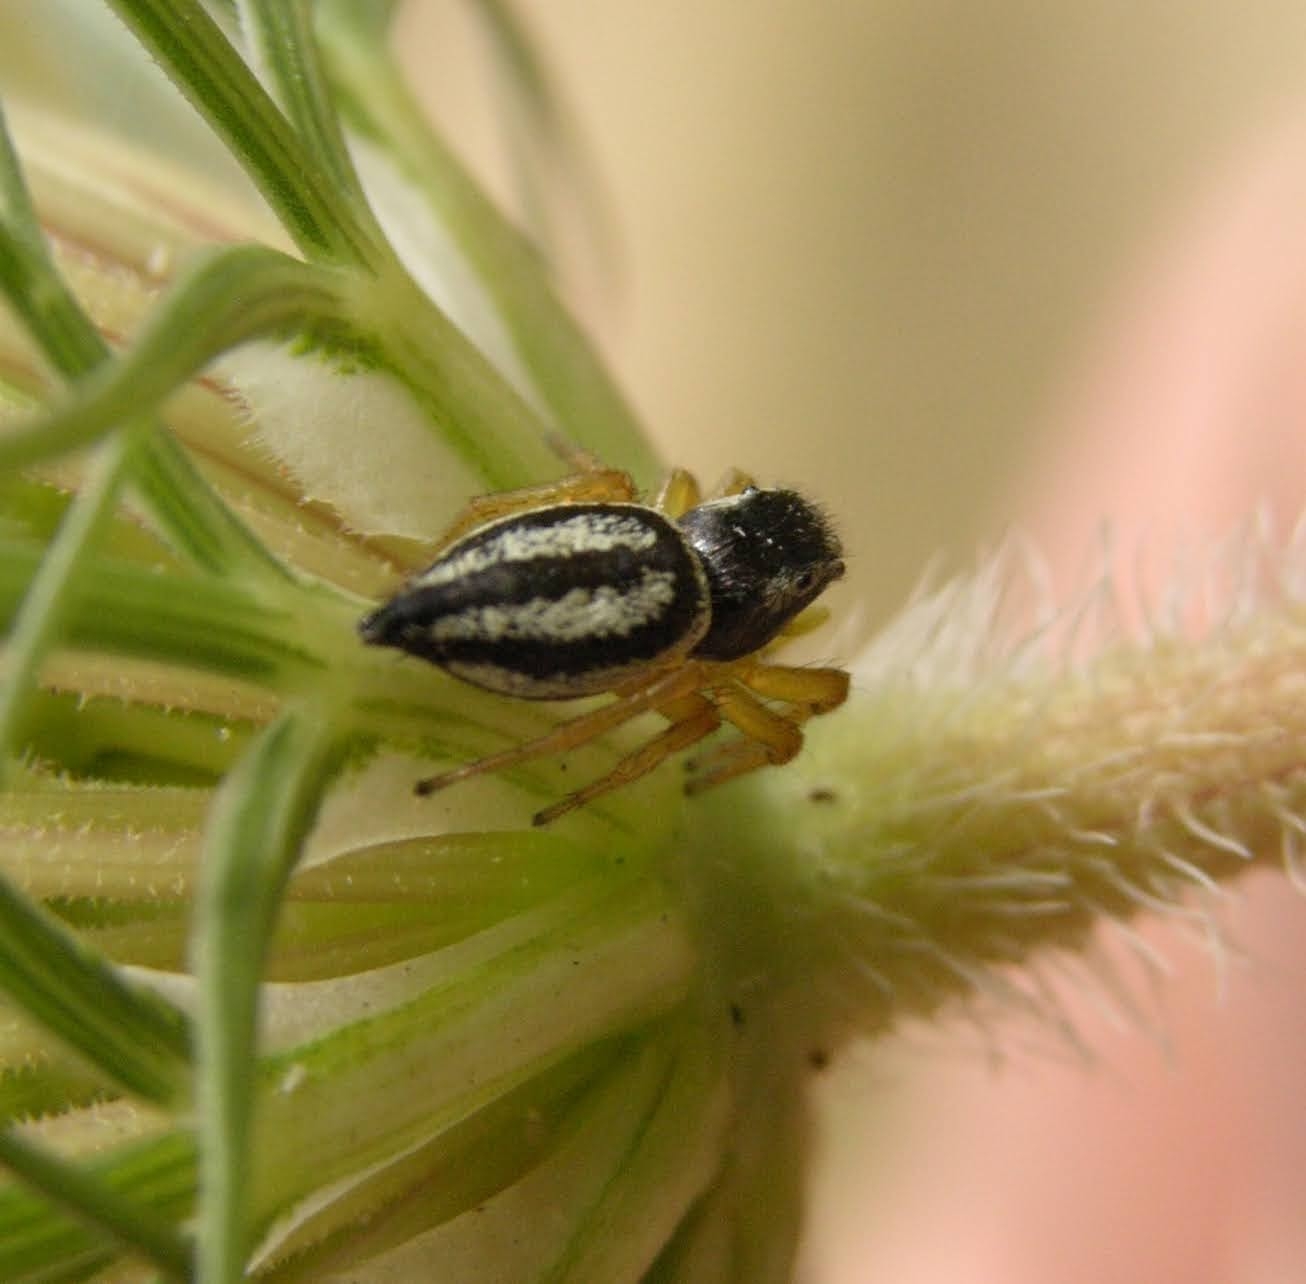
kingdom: Animalia
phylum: Arthropoda
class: Arachnida
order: Araneae
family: Salticidae
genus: Heliophanus
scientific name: Heliophanus melinus
